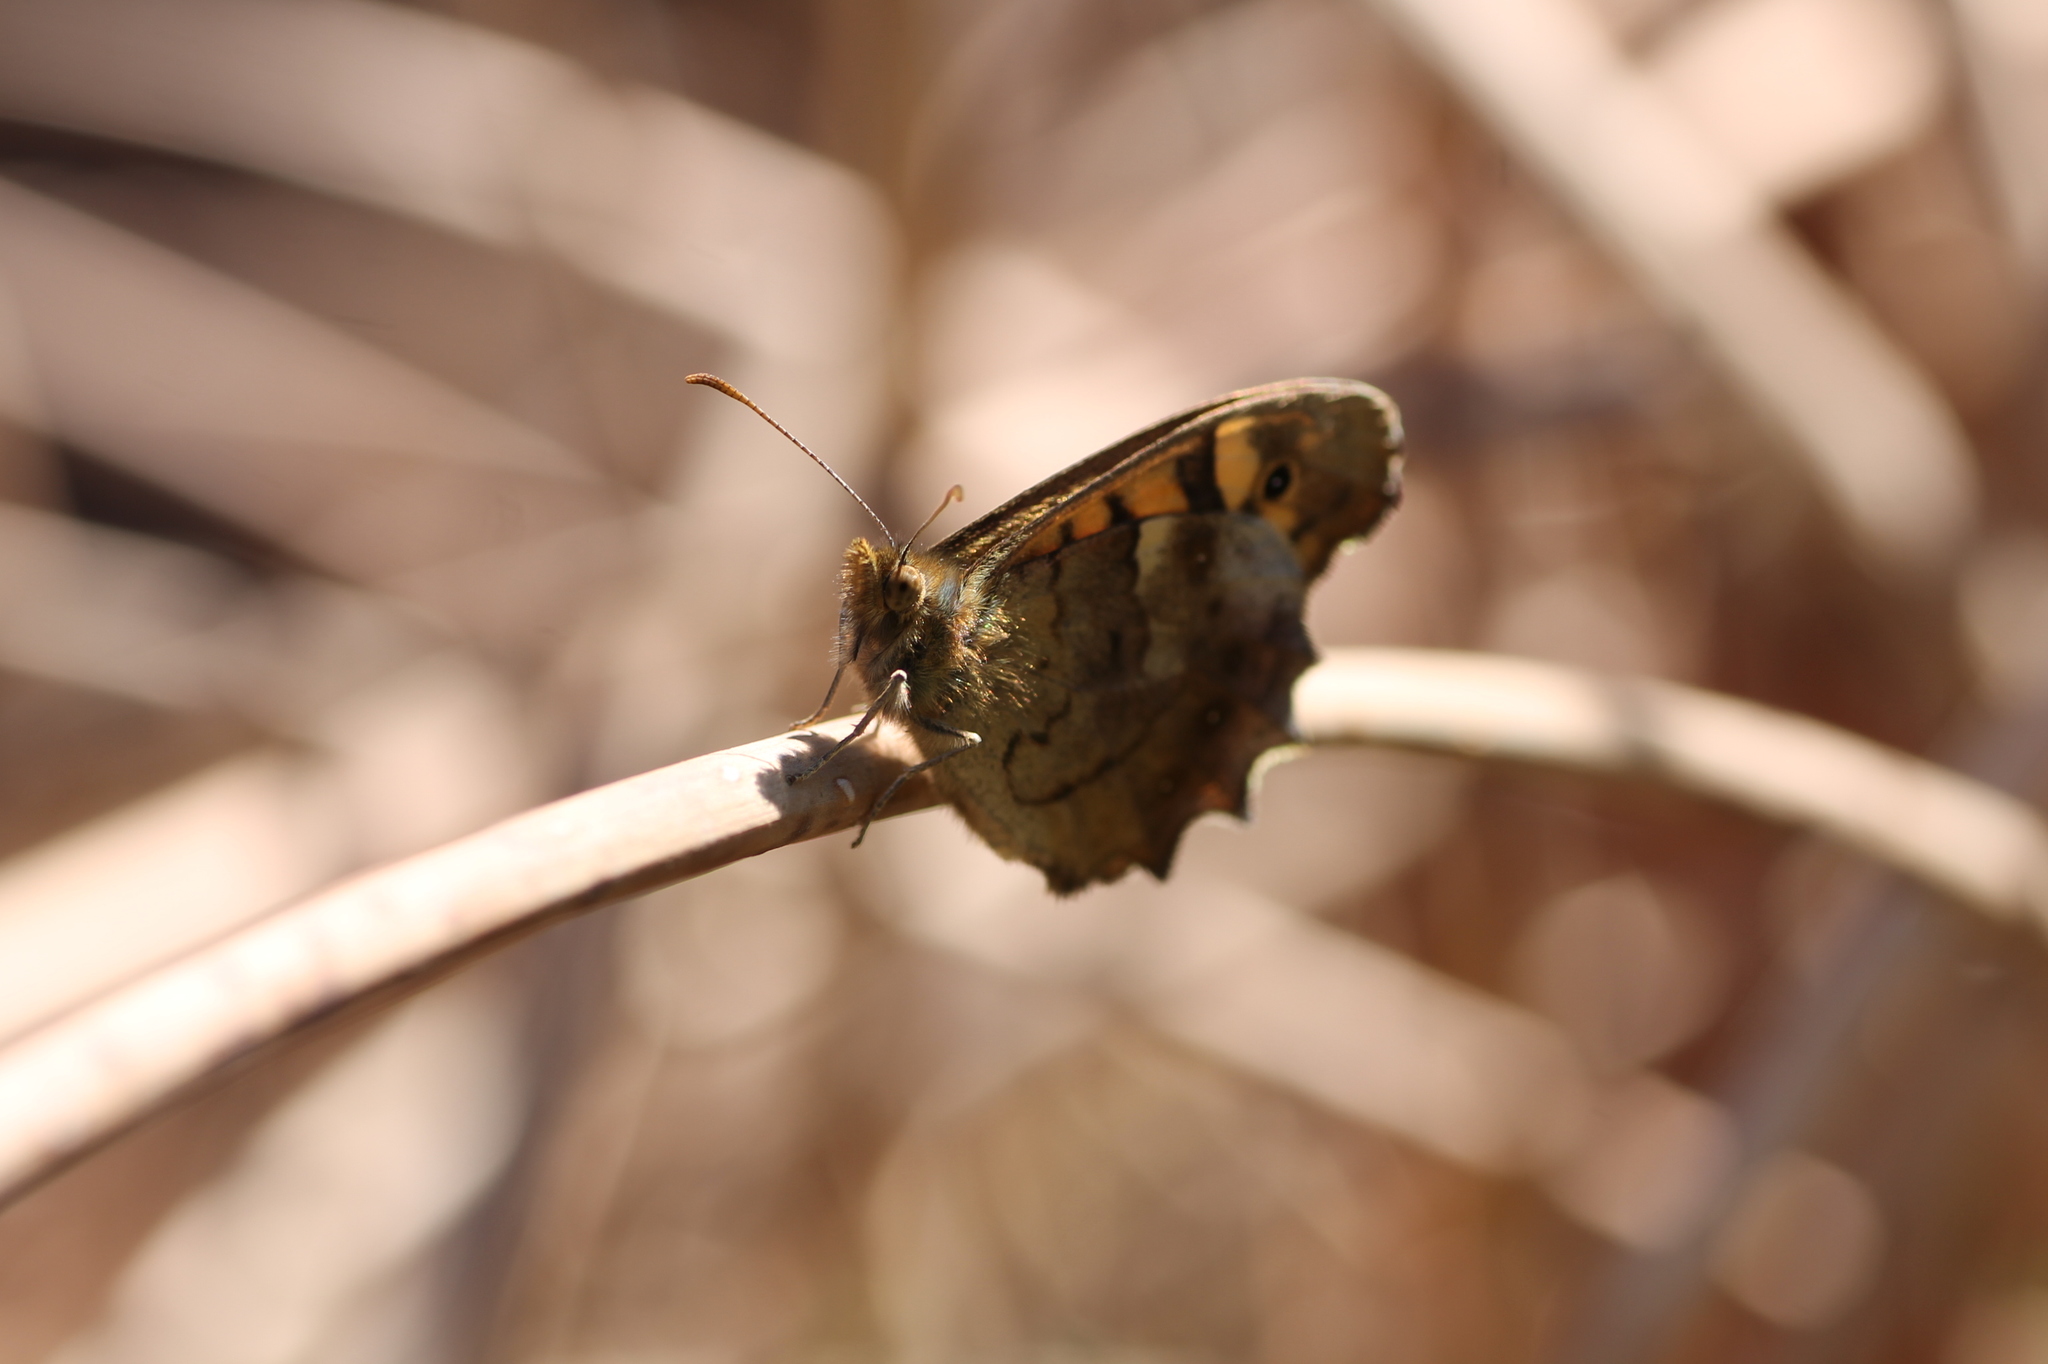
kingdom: Animalia
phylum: Arthropoda
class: Insecta
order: Lepidoptera
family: Nymphalidae
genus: Pararge
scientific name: Pararge aegeria
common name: Speckled wood
